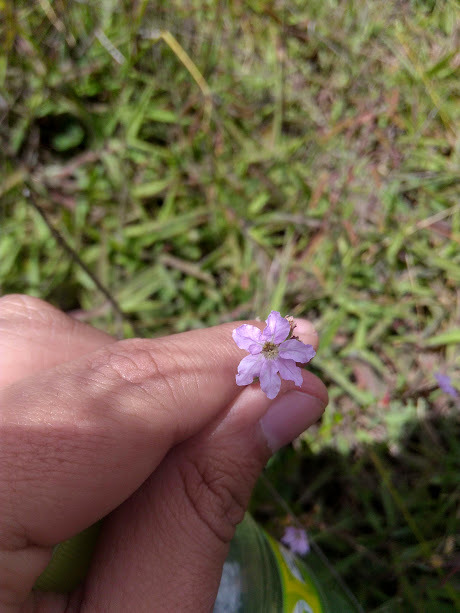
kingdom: Plantae
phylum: Tracheophyta
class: Magnoliopsida
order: Myrtales
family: Lythraceae
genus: Cuphea
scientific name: Cuphea ciliata
